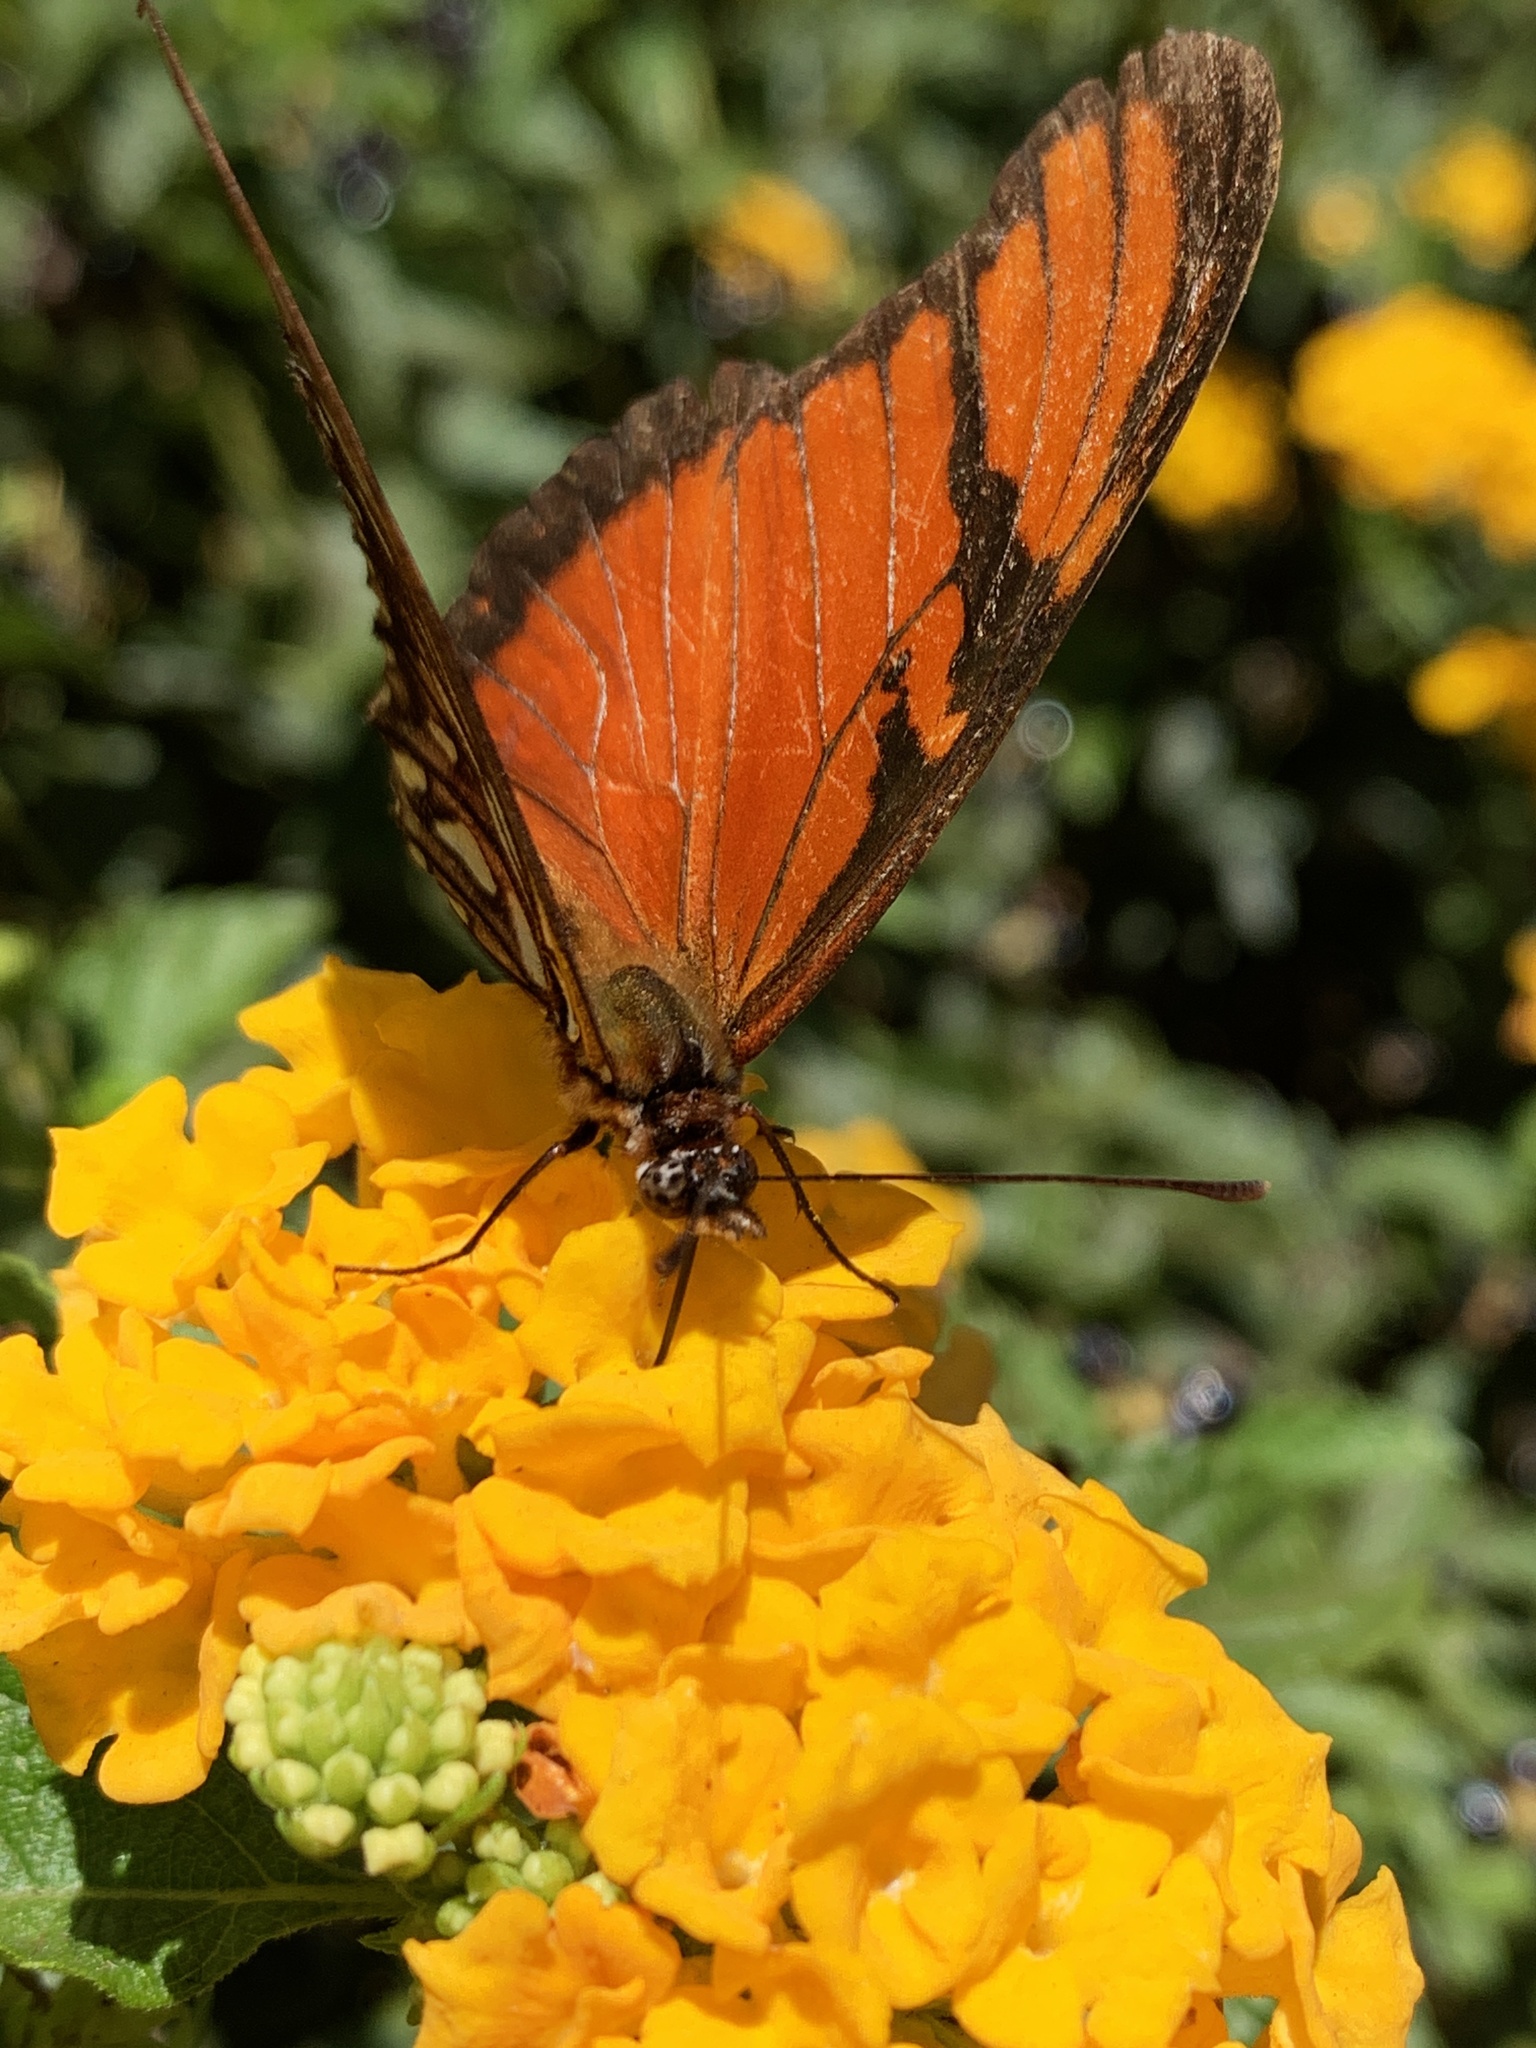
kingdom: Animalia
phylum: Arthropoda
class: Insecta
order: Lepidoptera
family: Nymphalidae
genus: Dione
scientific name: Dione juno
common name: Juno silverspot
